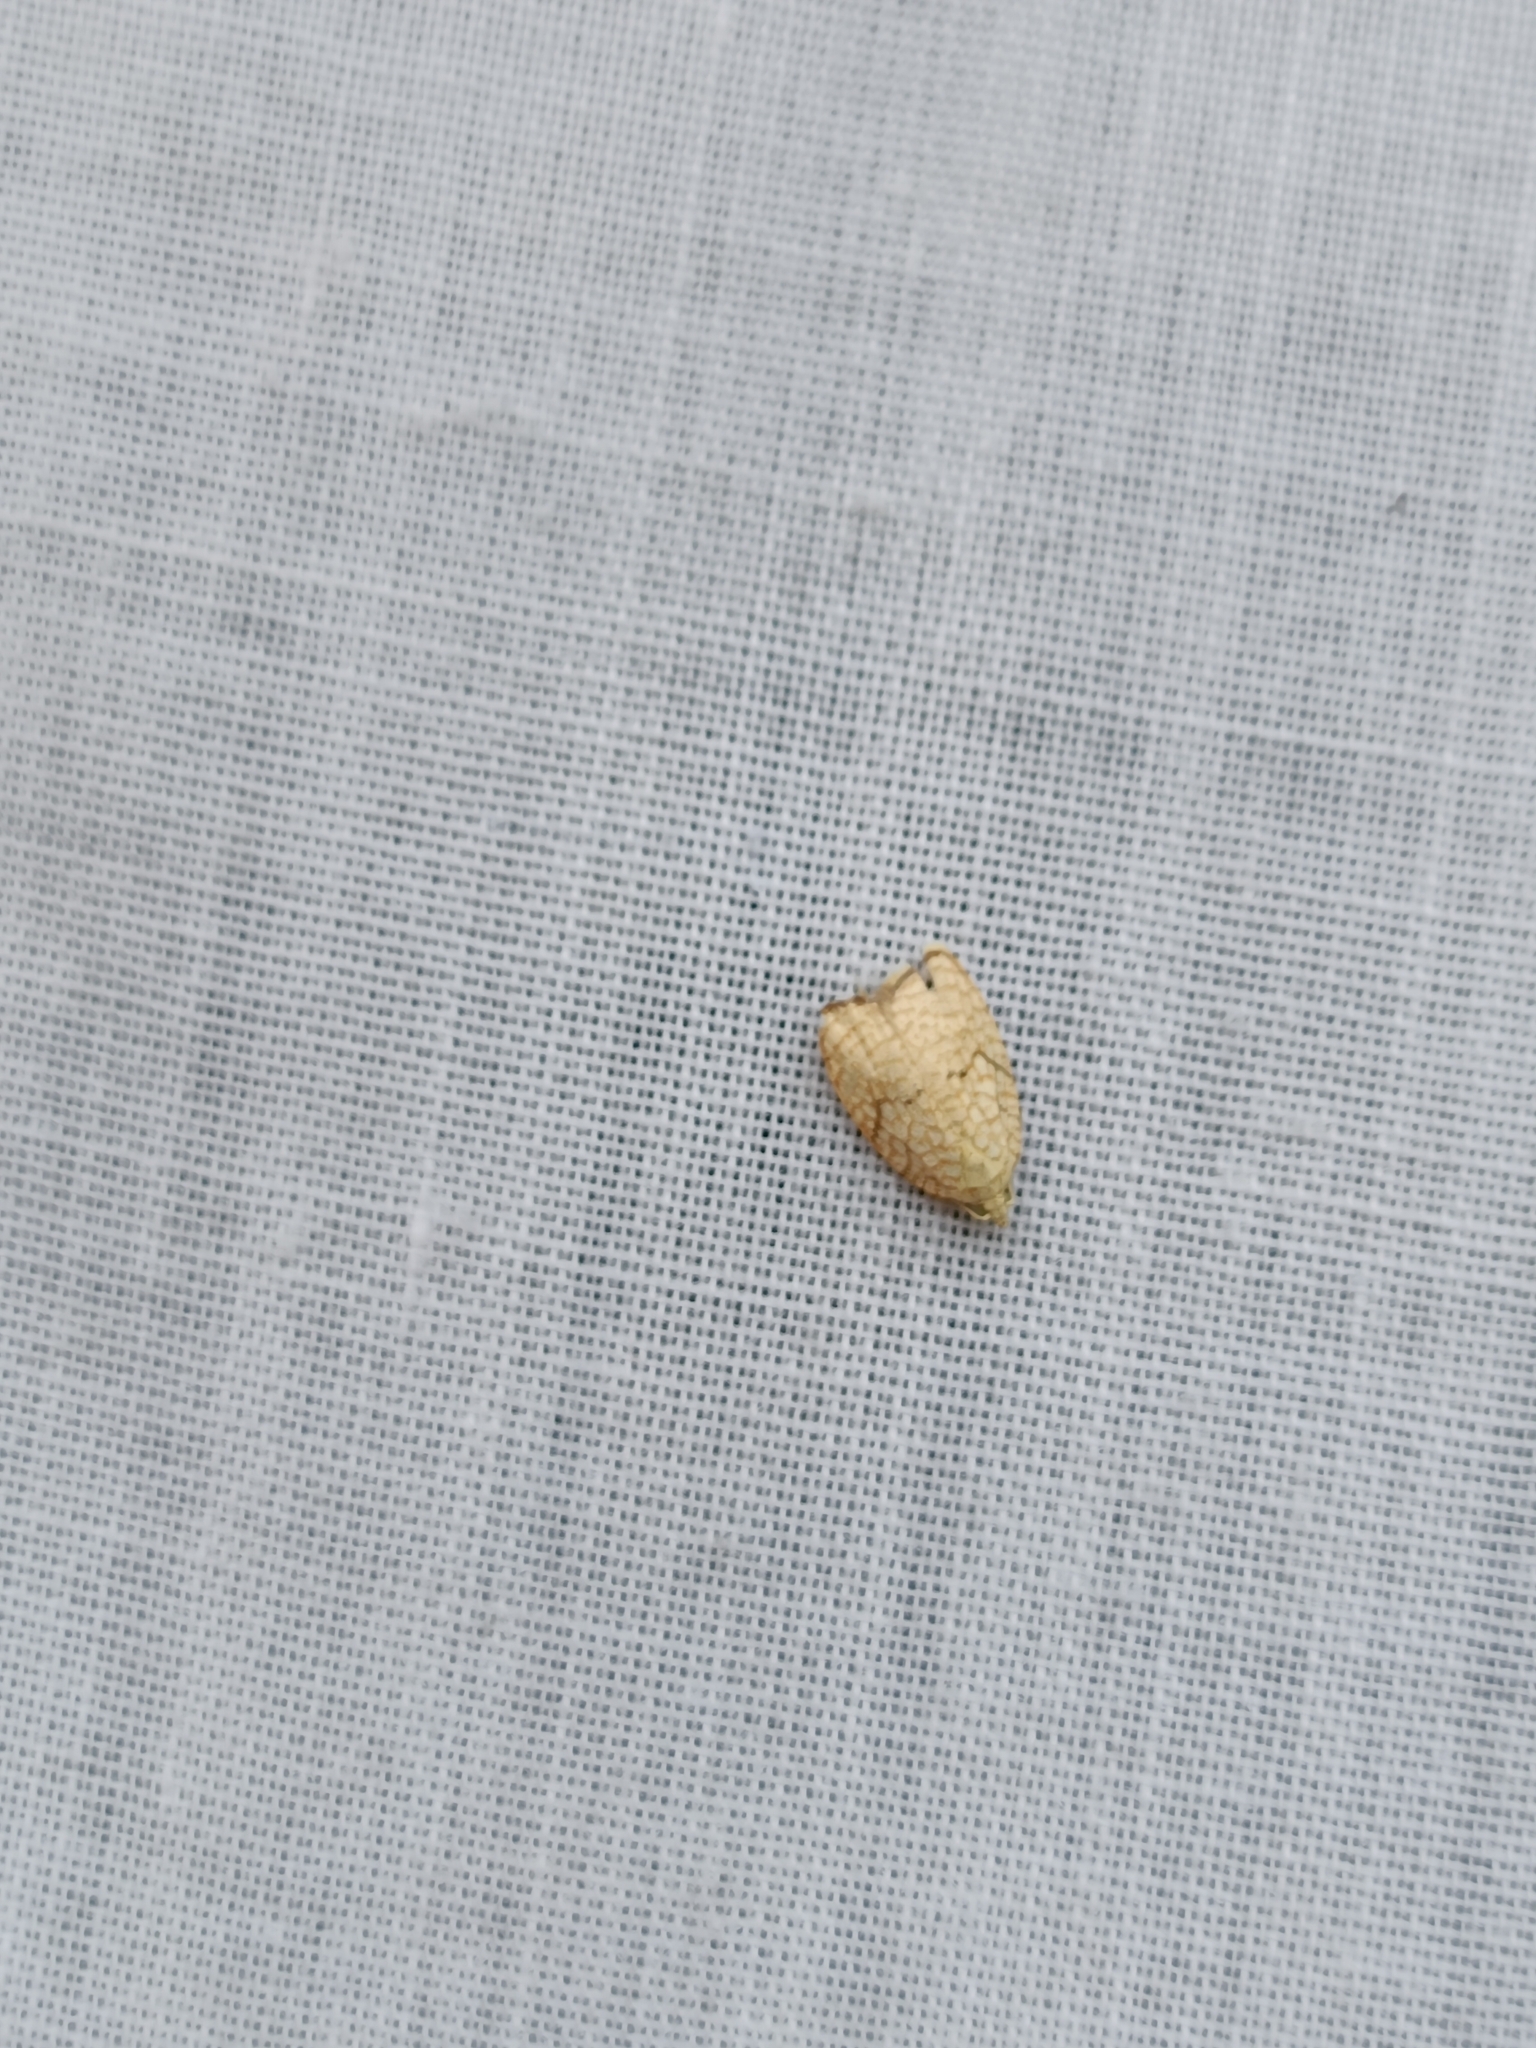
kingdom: Animalia
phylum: Arthropoda
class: Insecta
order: Lepidoptera
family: Tortricidae
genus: Acleris
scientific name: Acleris forsskaleana
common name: Maple button
